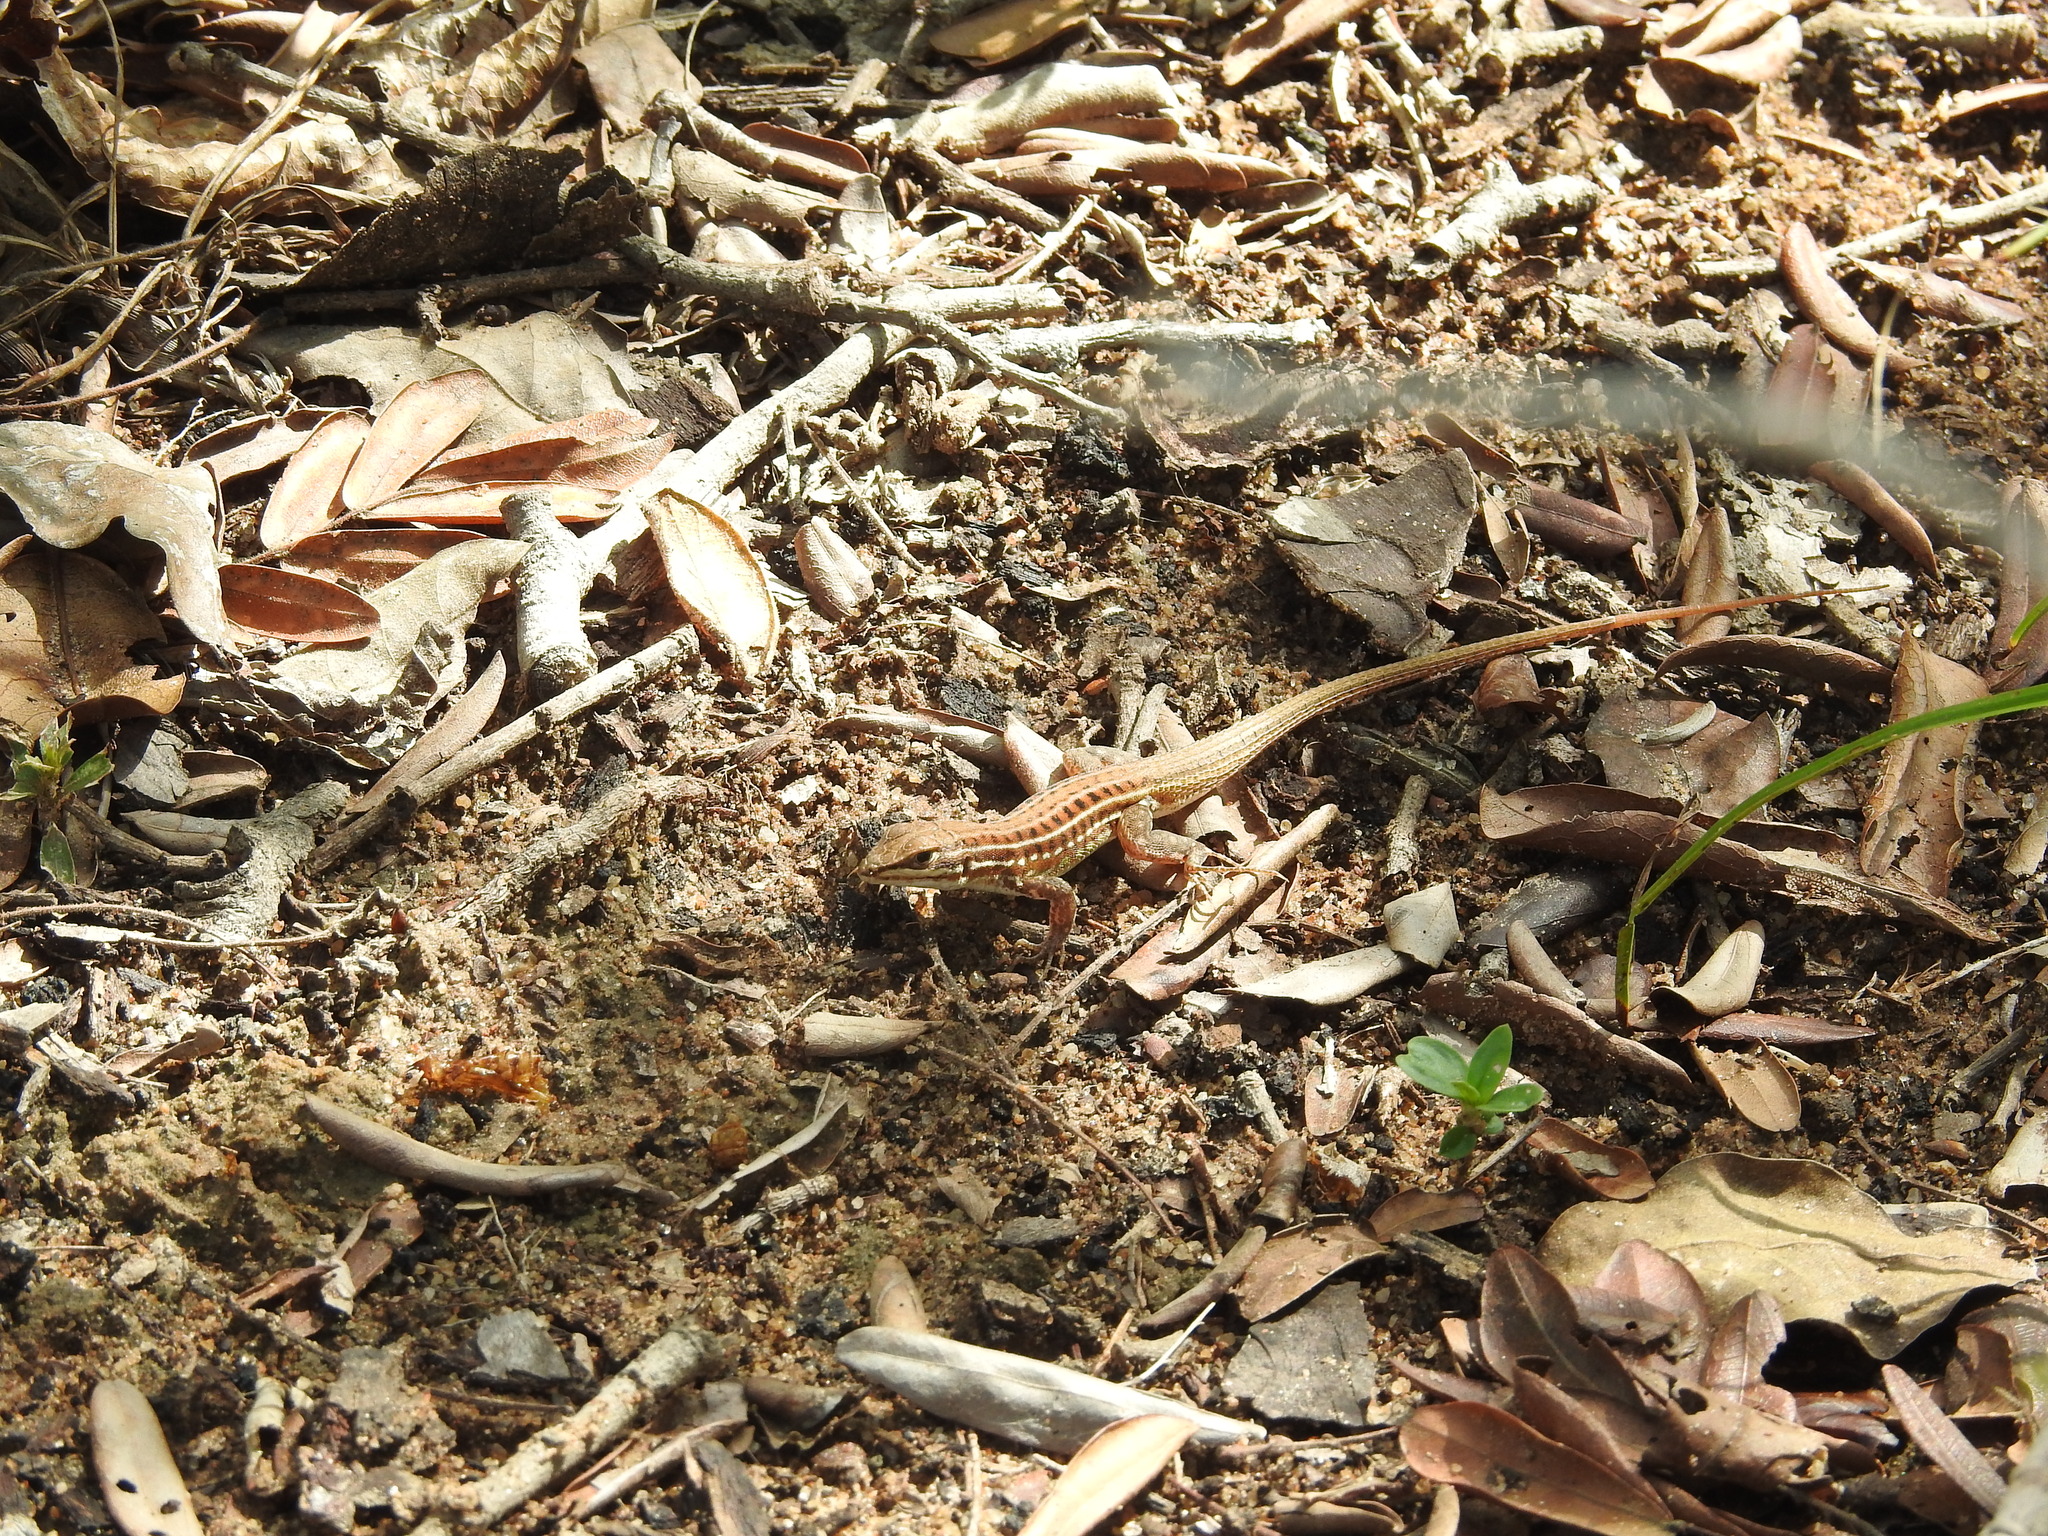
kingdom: Animalia
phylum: Chordata
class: Squamata
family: Lacertidae
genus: Heliobolus
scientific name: Heliobolus spekii
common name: Speke’s sand lizard
